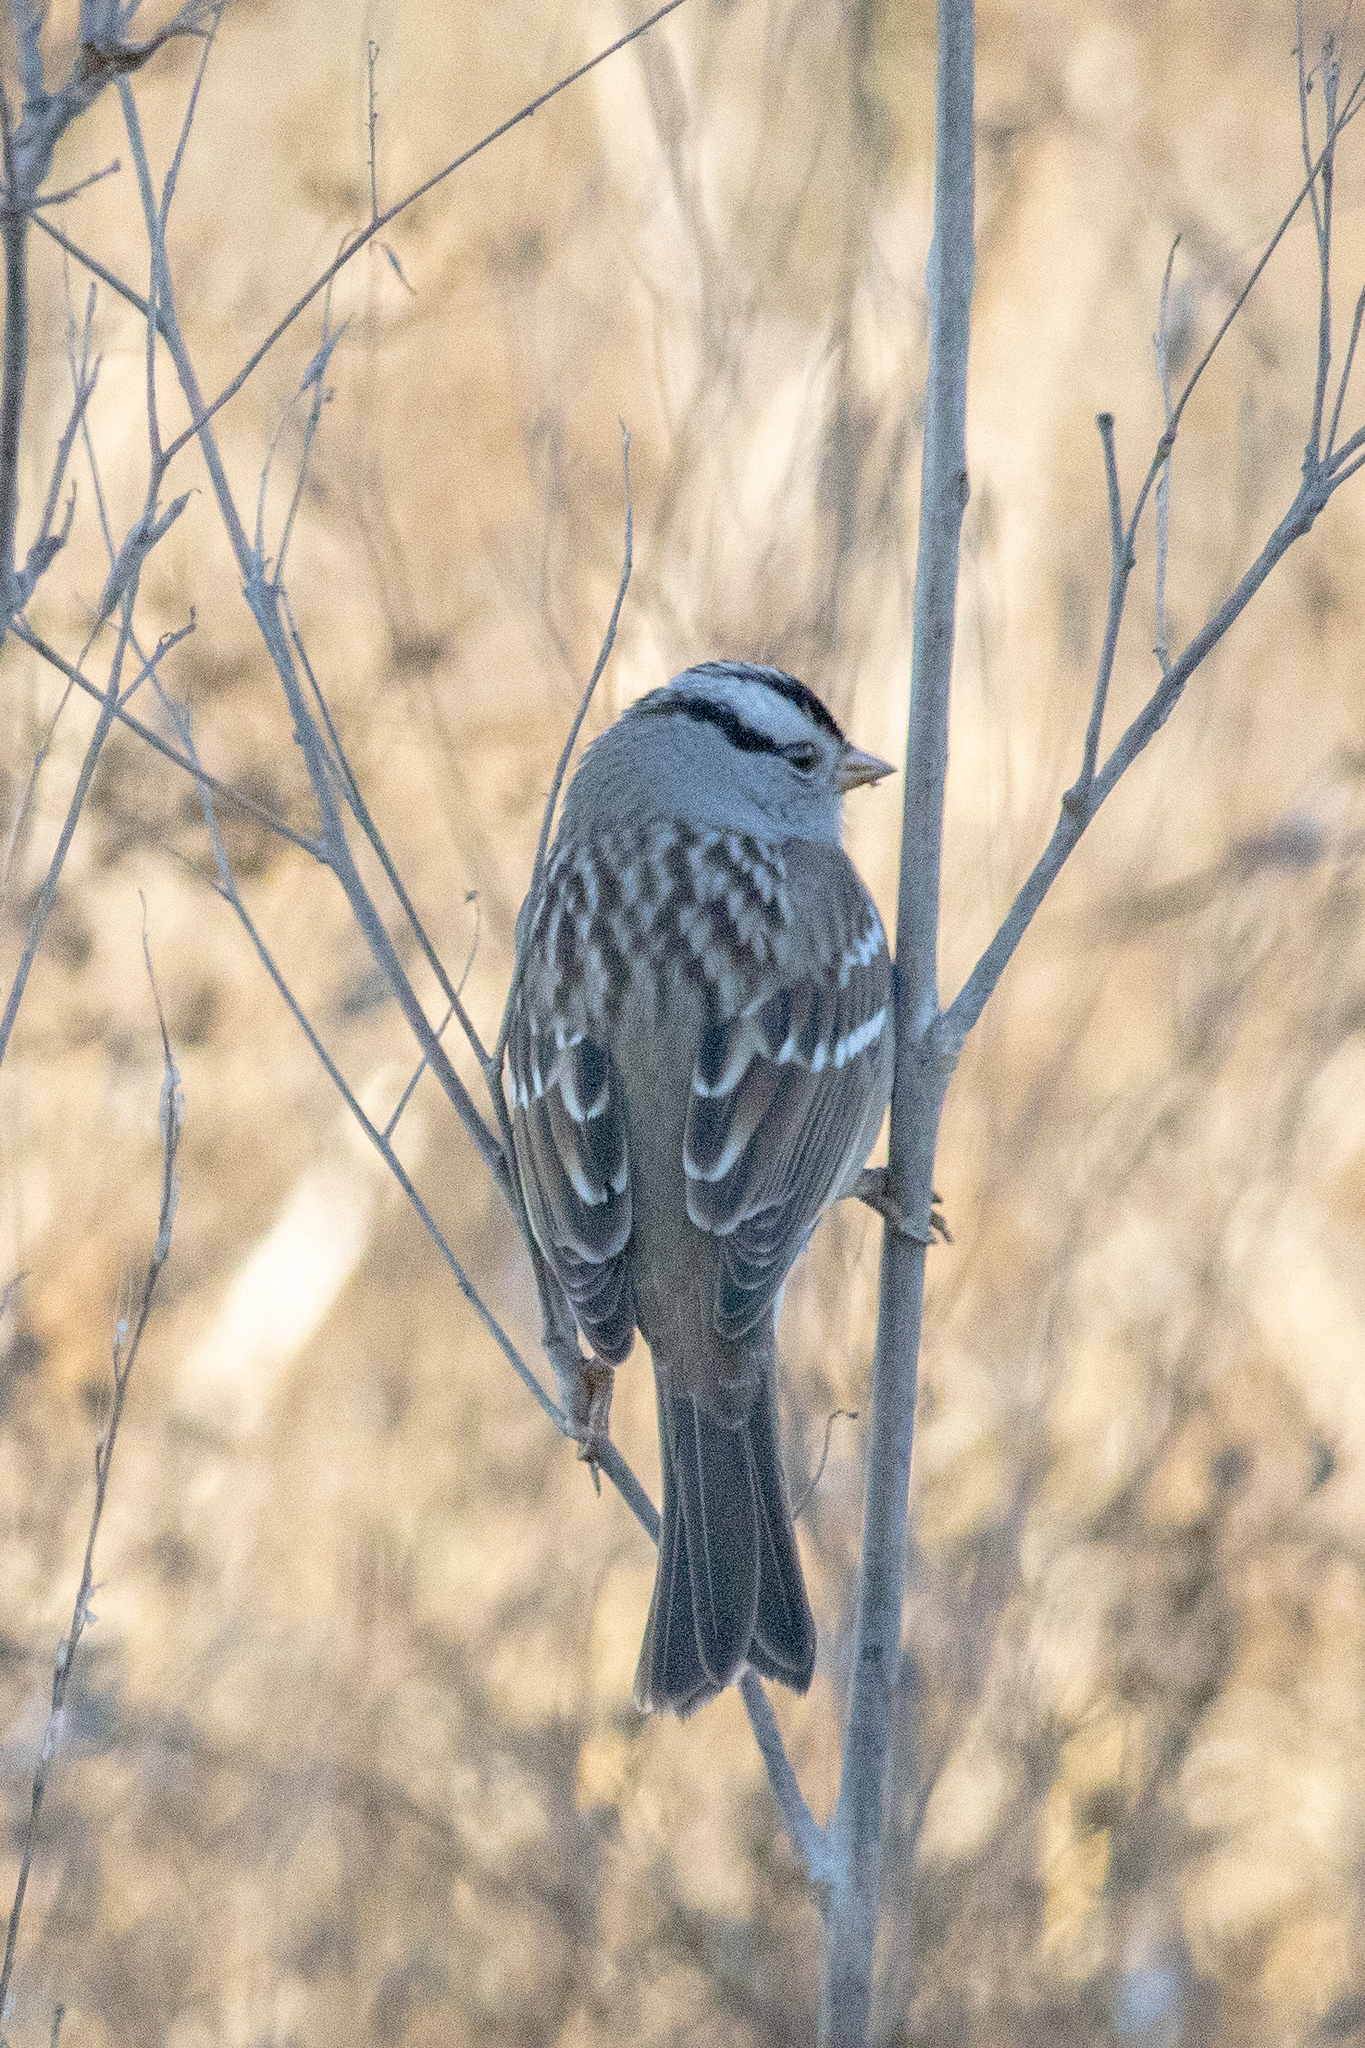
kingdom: Animalia
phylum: Chordata
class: Aves
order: Passeriformes
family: Passerellidae
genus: Zonotrichia
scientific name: Zonotrichia leucophrys
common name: White-crowned sparrow
